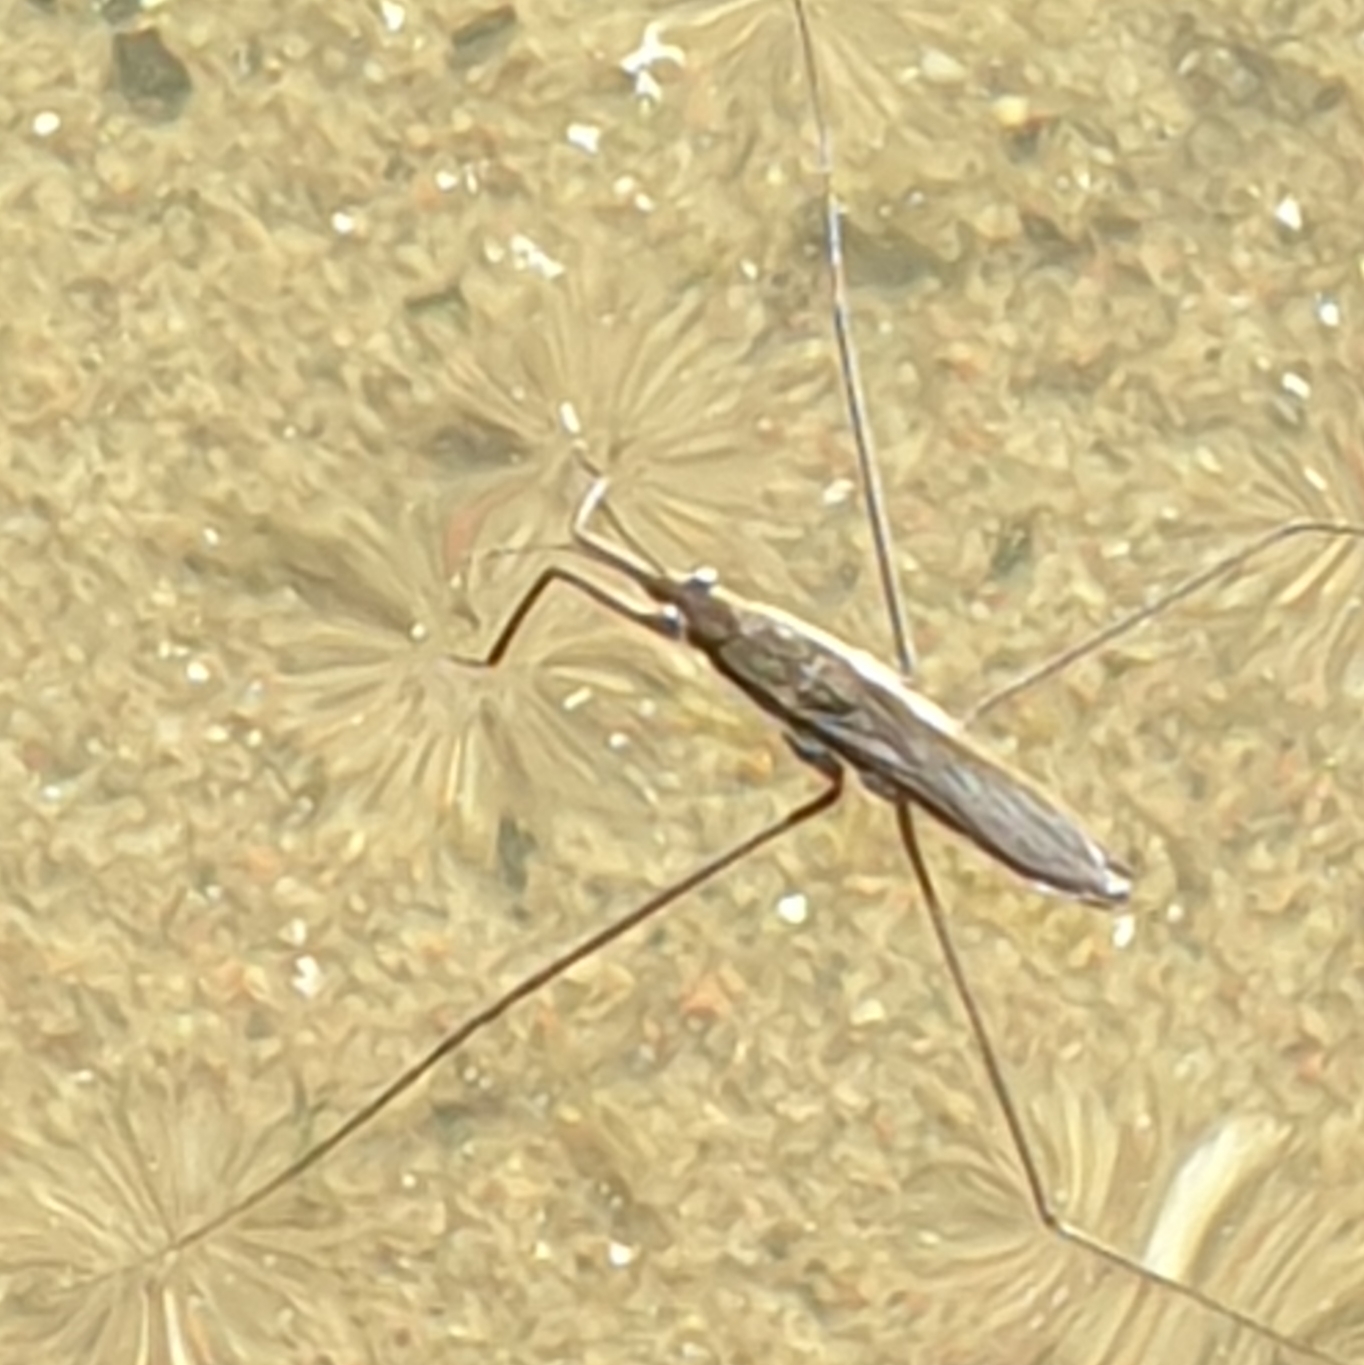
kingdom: Animalia
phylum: Arthropoda
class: Insecta
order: Hemiptera
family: Gerridae
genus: Aquarius
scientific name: Aquarius paludum
